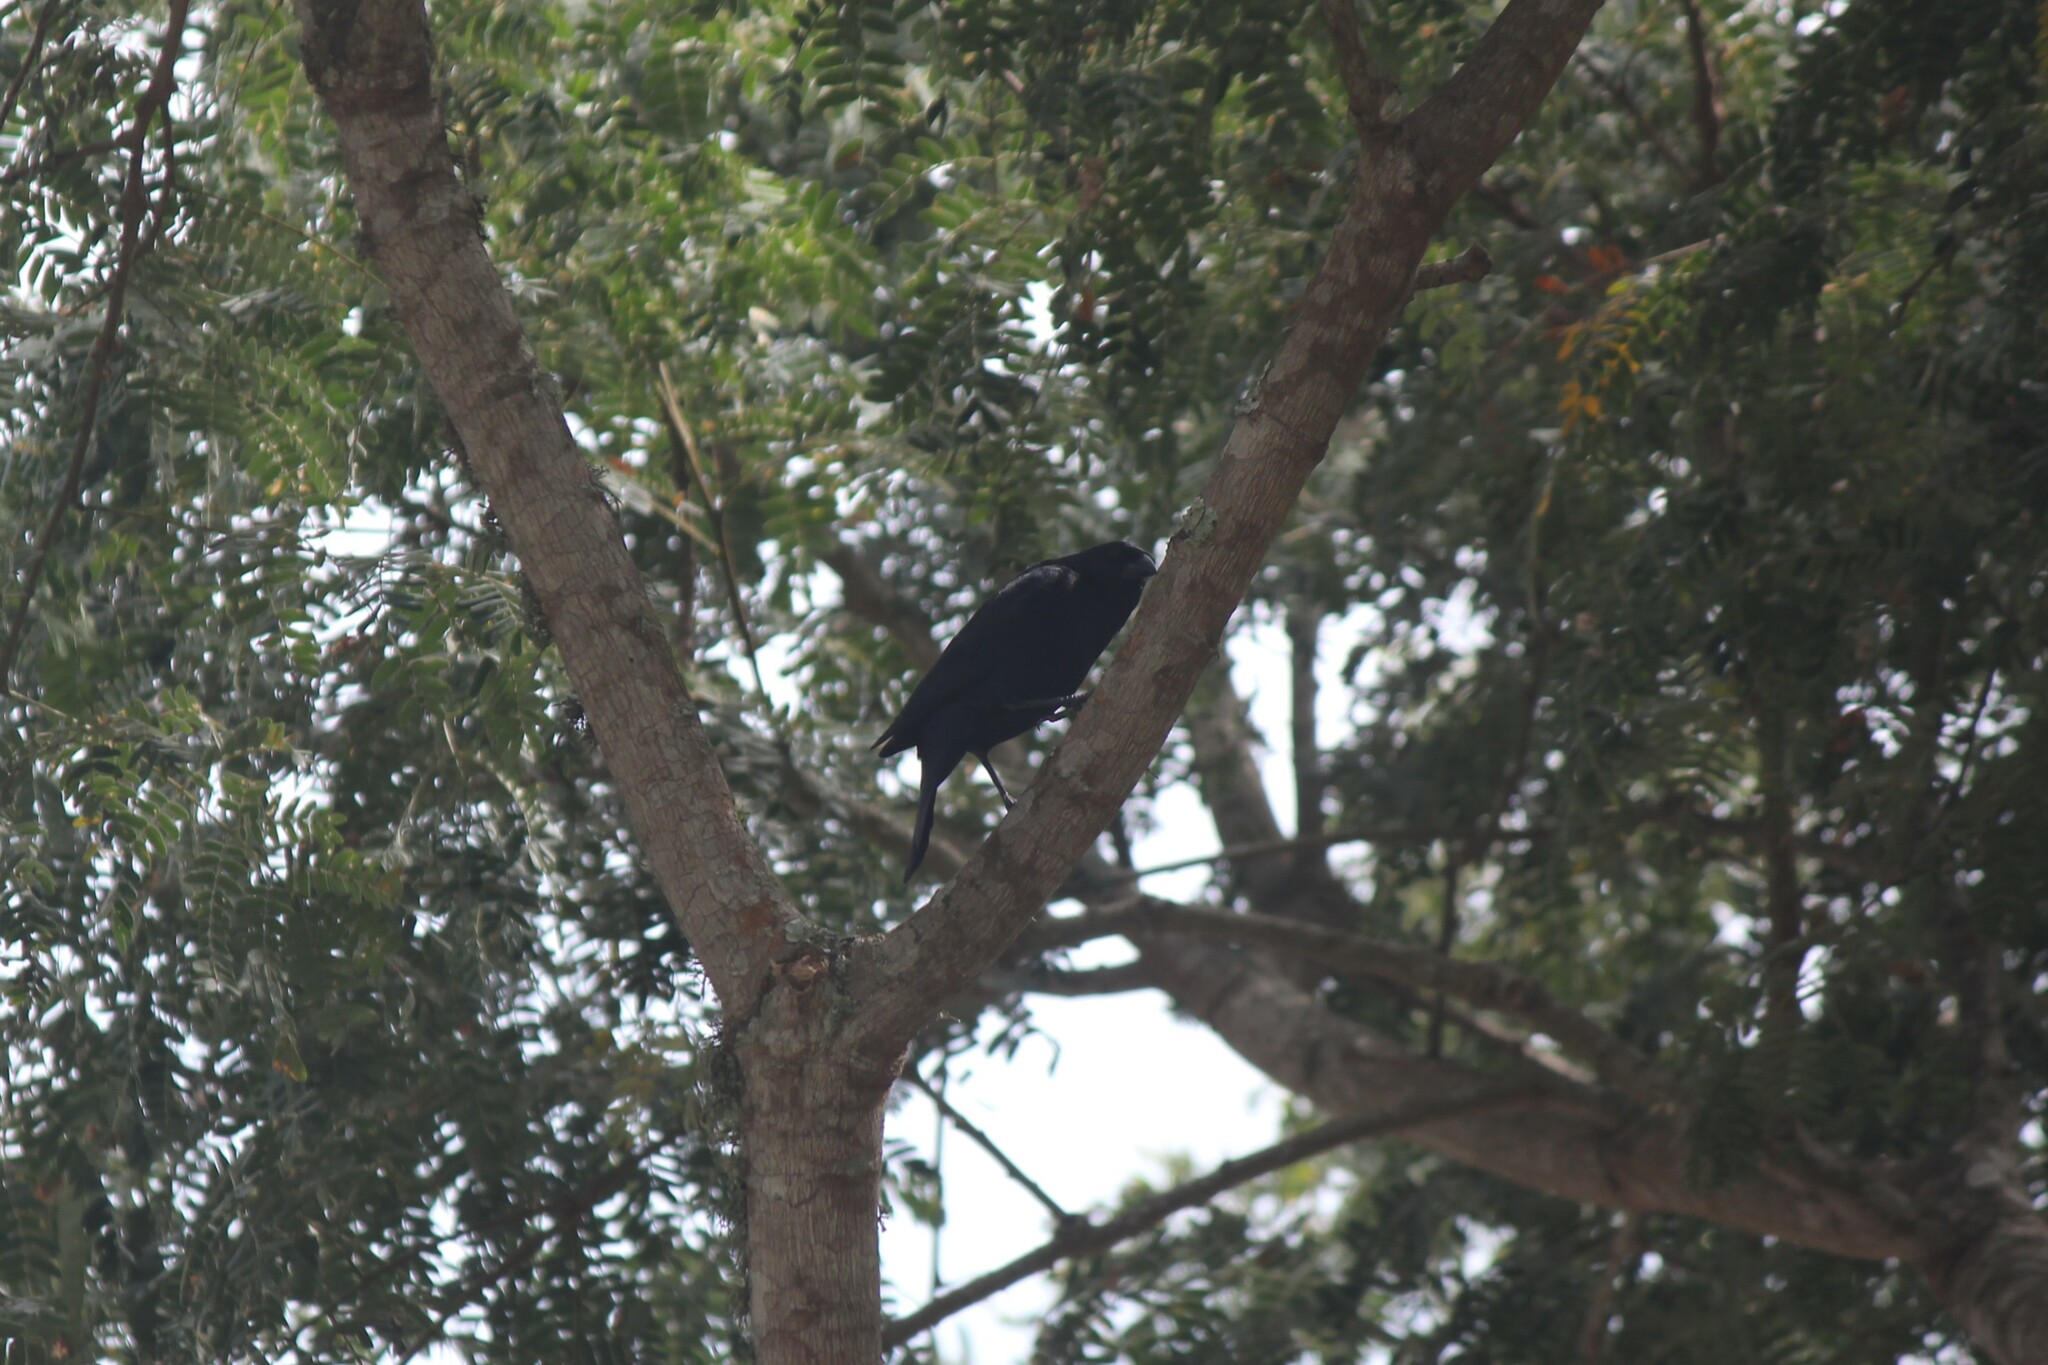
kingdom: Animalia
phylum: Chordata
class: Aves
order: Passeriformes
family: Icteridae
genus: Molothrus
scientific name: Molothrus bonariensis
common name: Shiny cowbird
